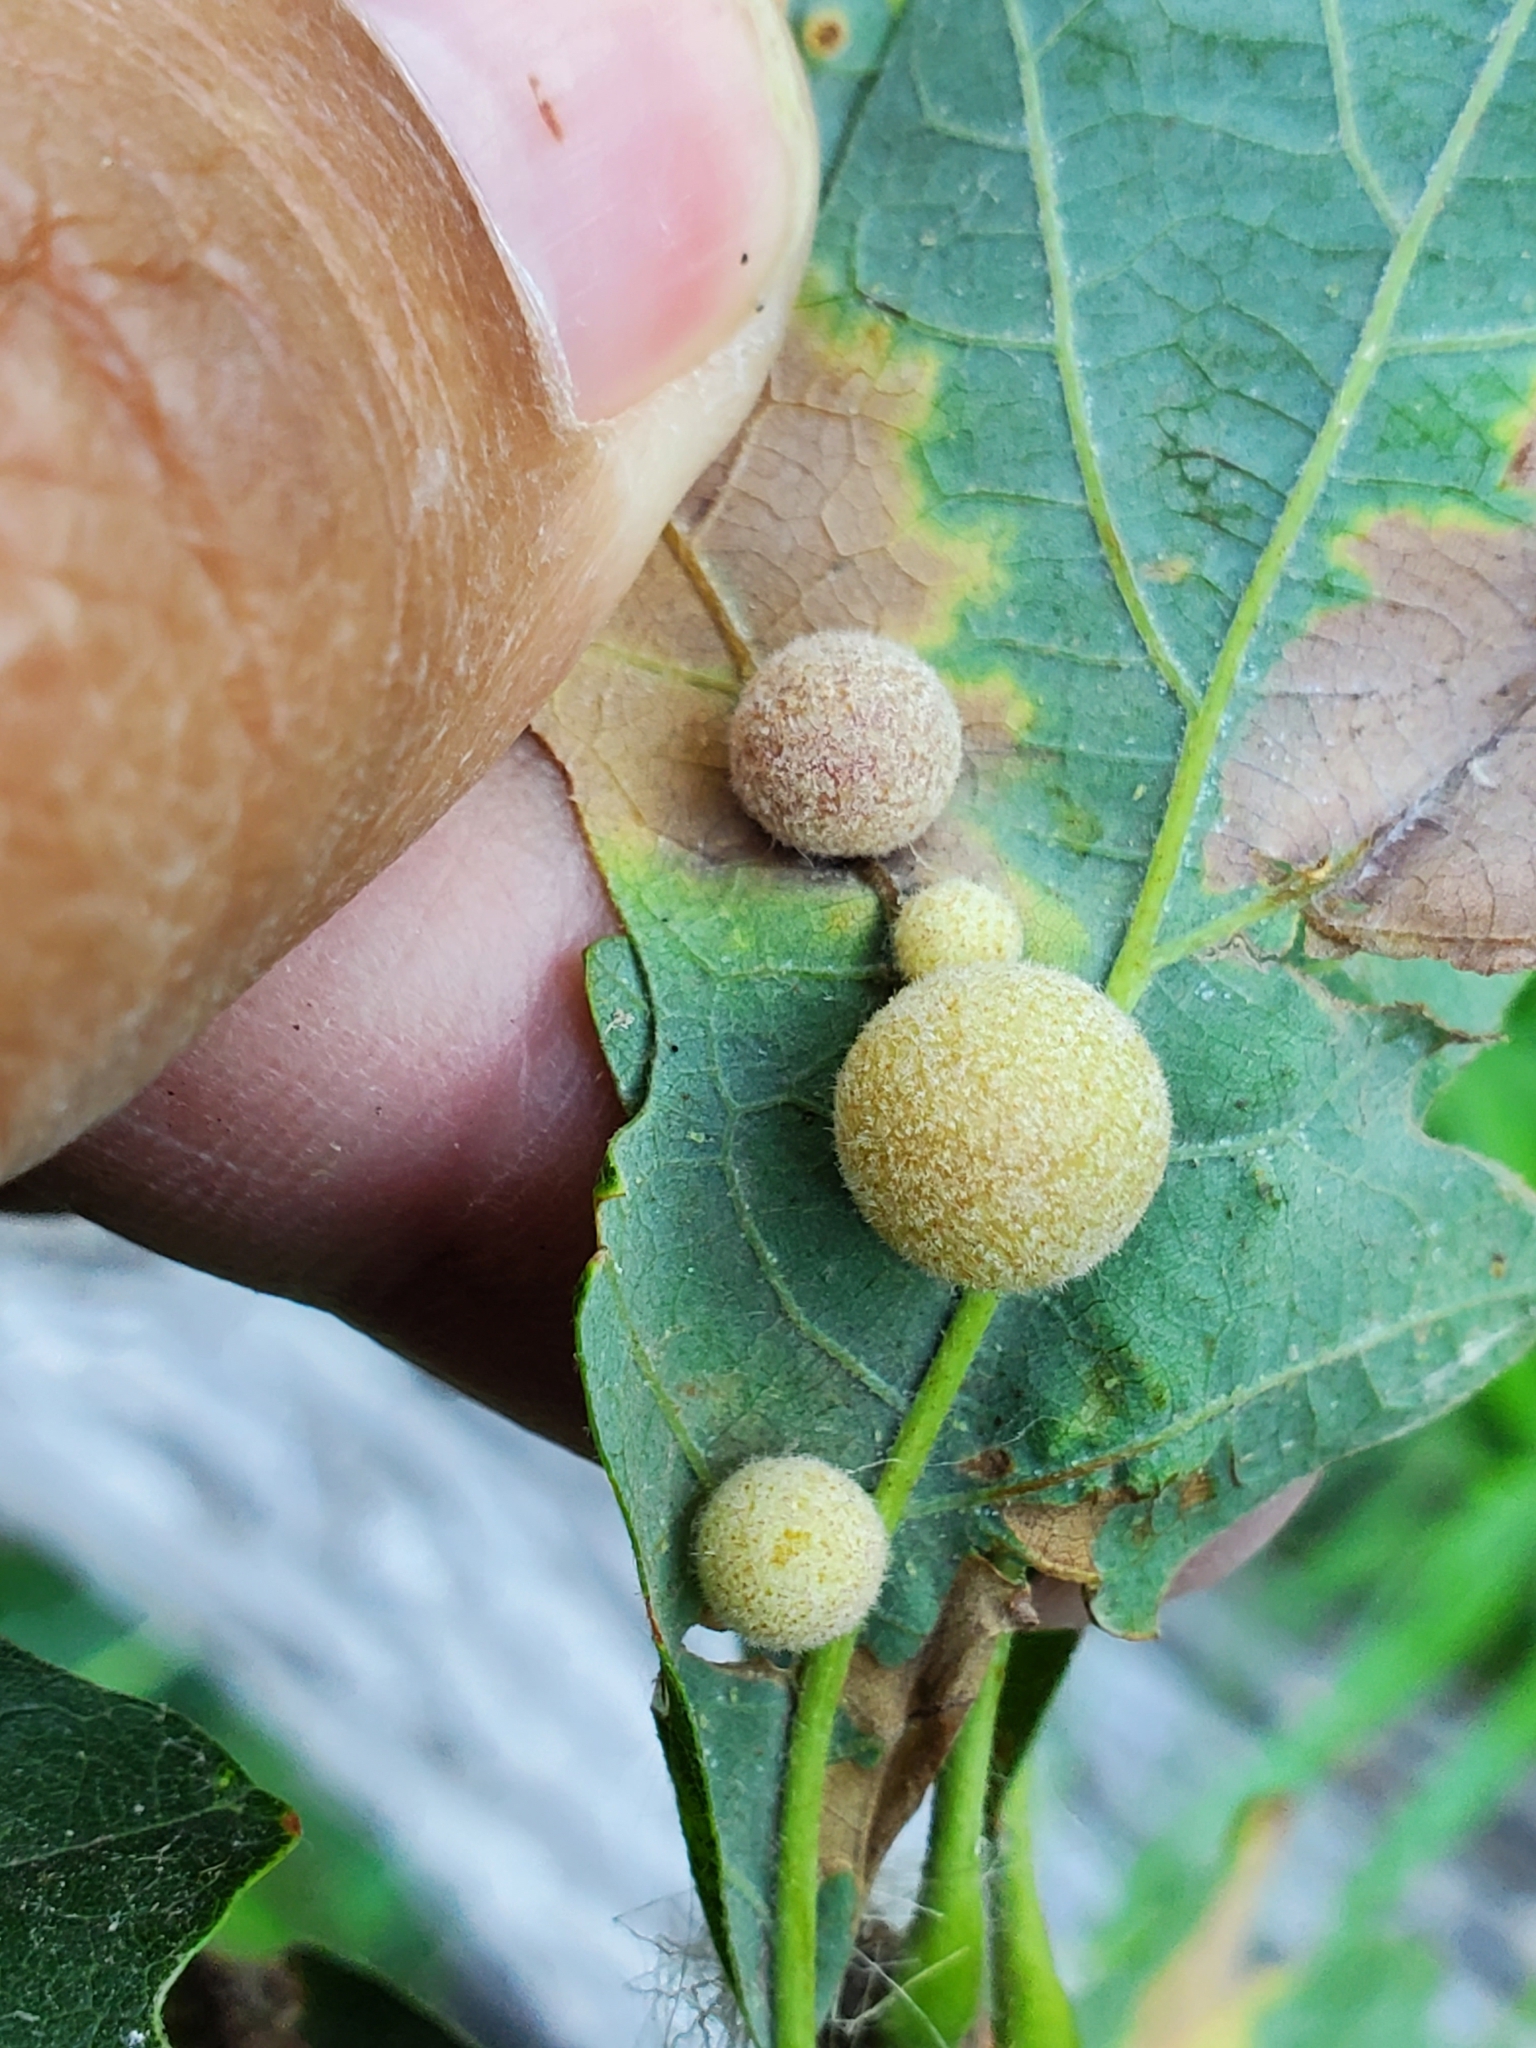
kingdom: Animalia
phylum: Arthropoda
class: Insecta
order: Hymenoptera
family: Cynipidae
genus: Philonix
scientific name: Philonix fulvicollis
